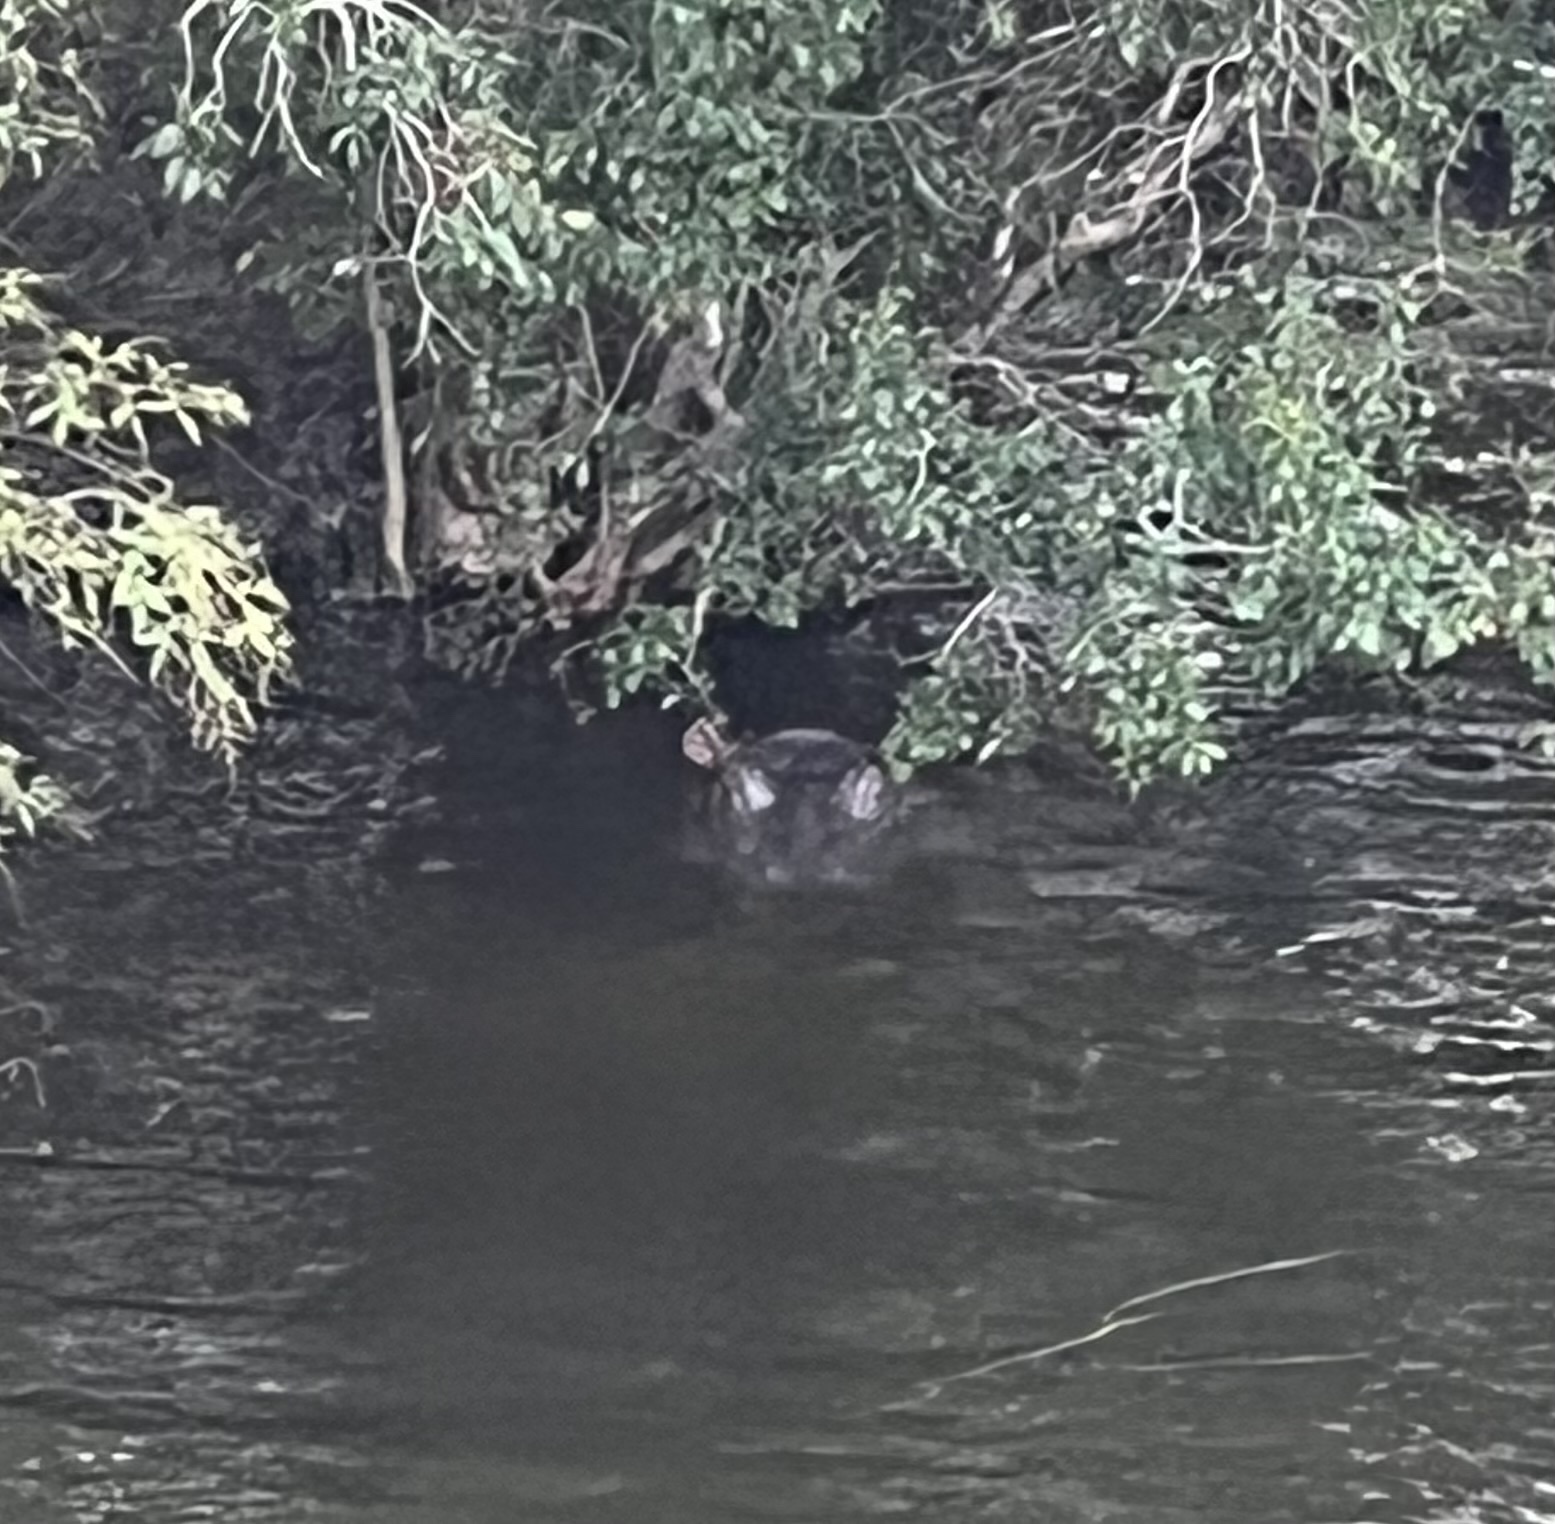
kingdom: Animalia
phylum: Chordata
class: Mammalia
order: Artiodactyla
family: Hippopotamidae
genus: Hippopotamus
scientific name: Hippopotamus amphibius
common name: Common hippopotamus
